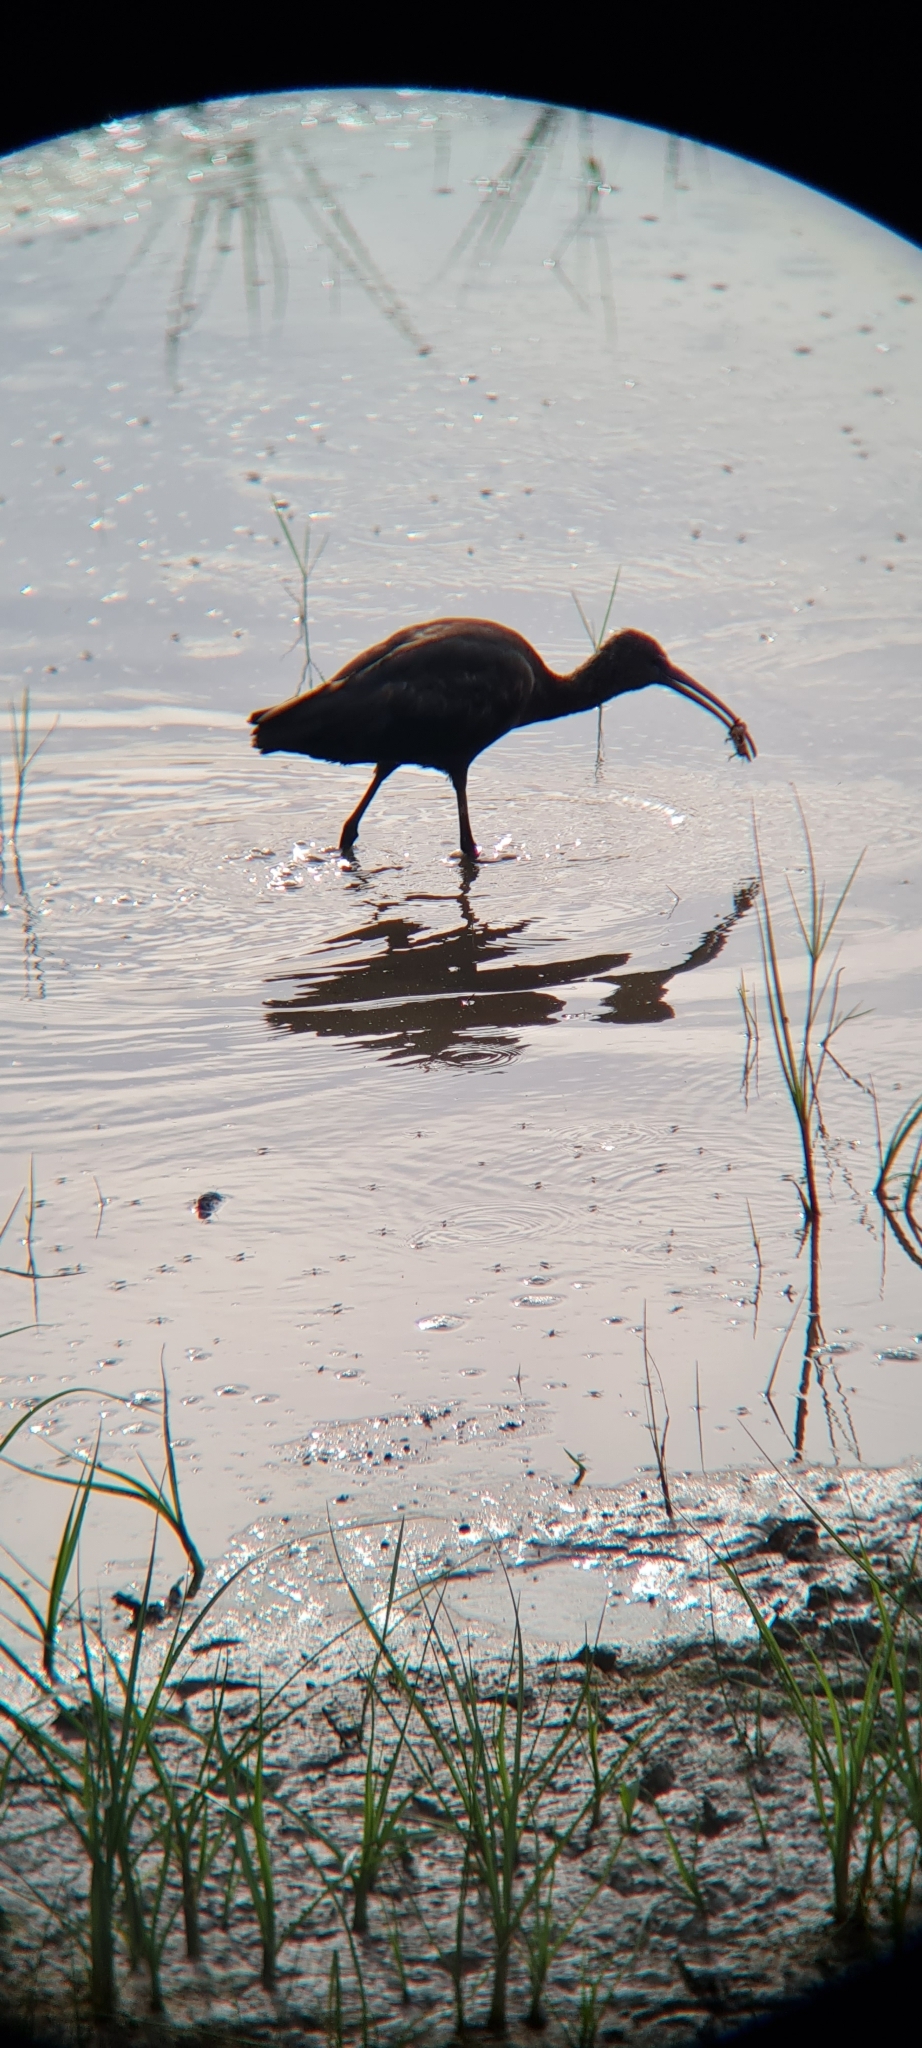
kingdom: Animalia
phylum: Chordata
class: Aves
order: Pelecaniformes
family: Threskiornithidae
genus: Plegadis
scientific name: Plegadis falcinellus
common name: Glossy ibis
